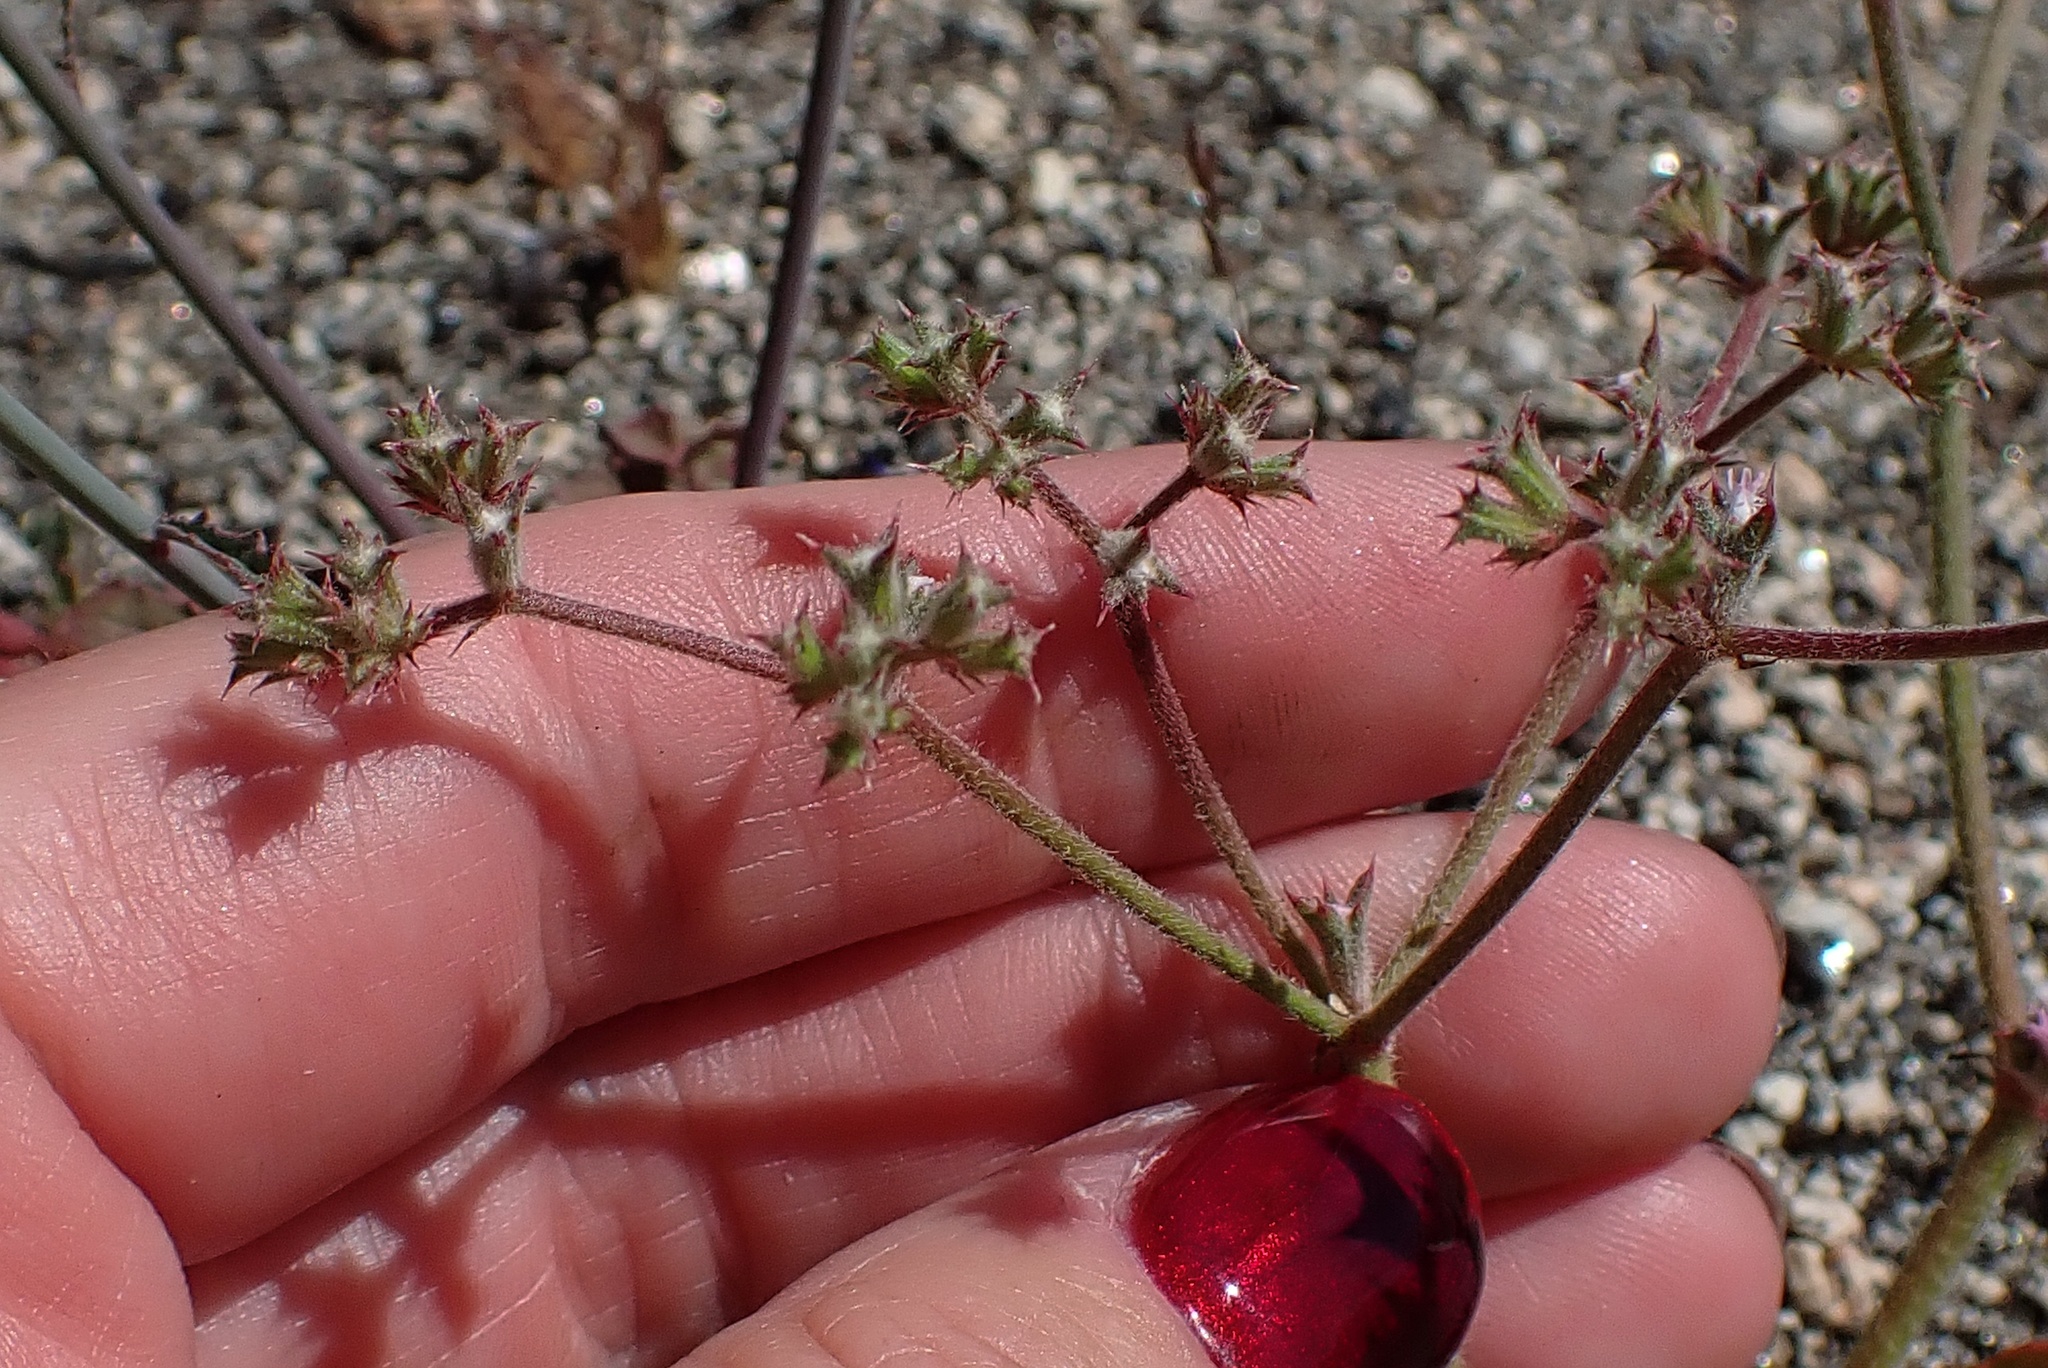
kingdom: Plantae
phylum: Tracheophyta
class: Magnoliopsida
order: Caryophyllales
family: Polygonaceae
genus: Chorizanthe
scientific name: Chorizanthe fimbriata
